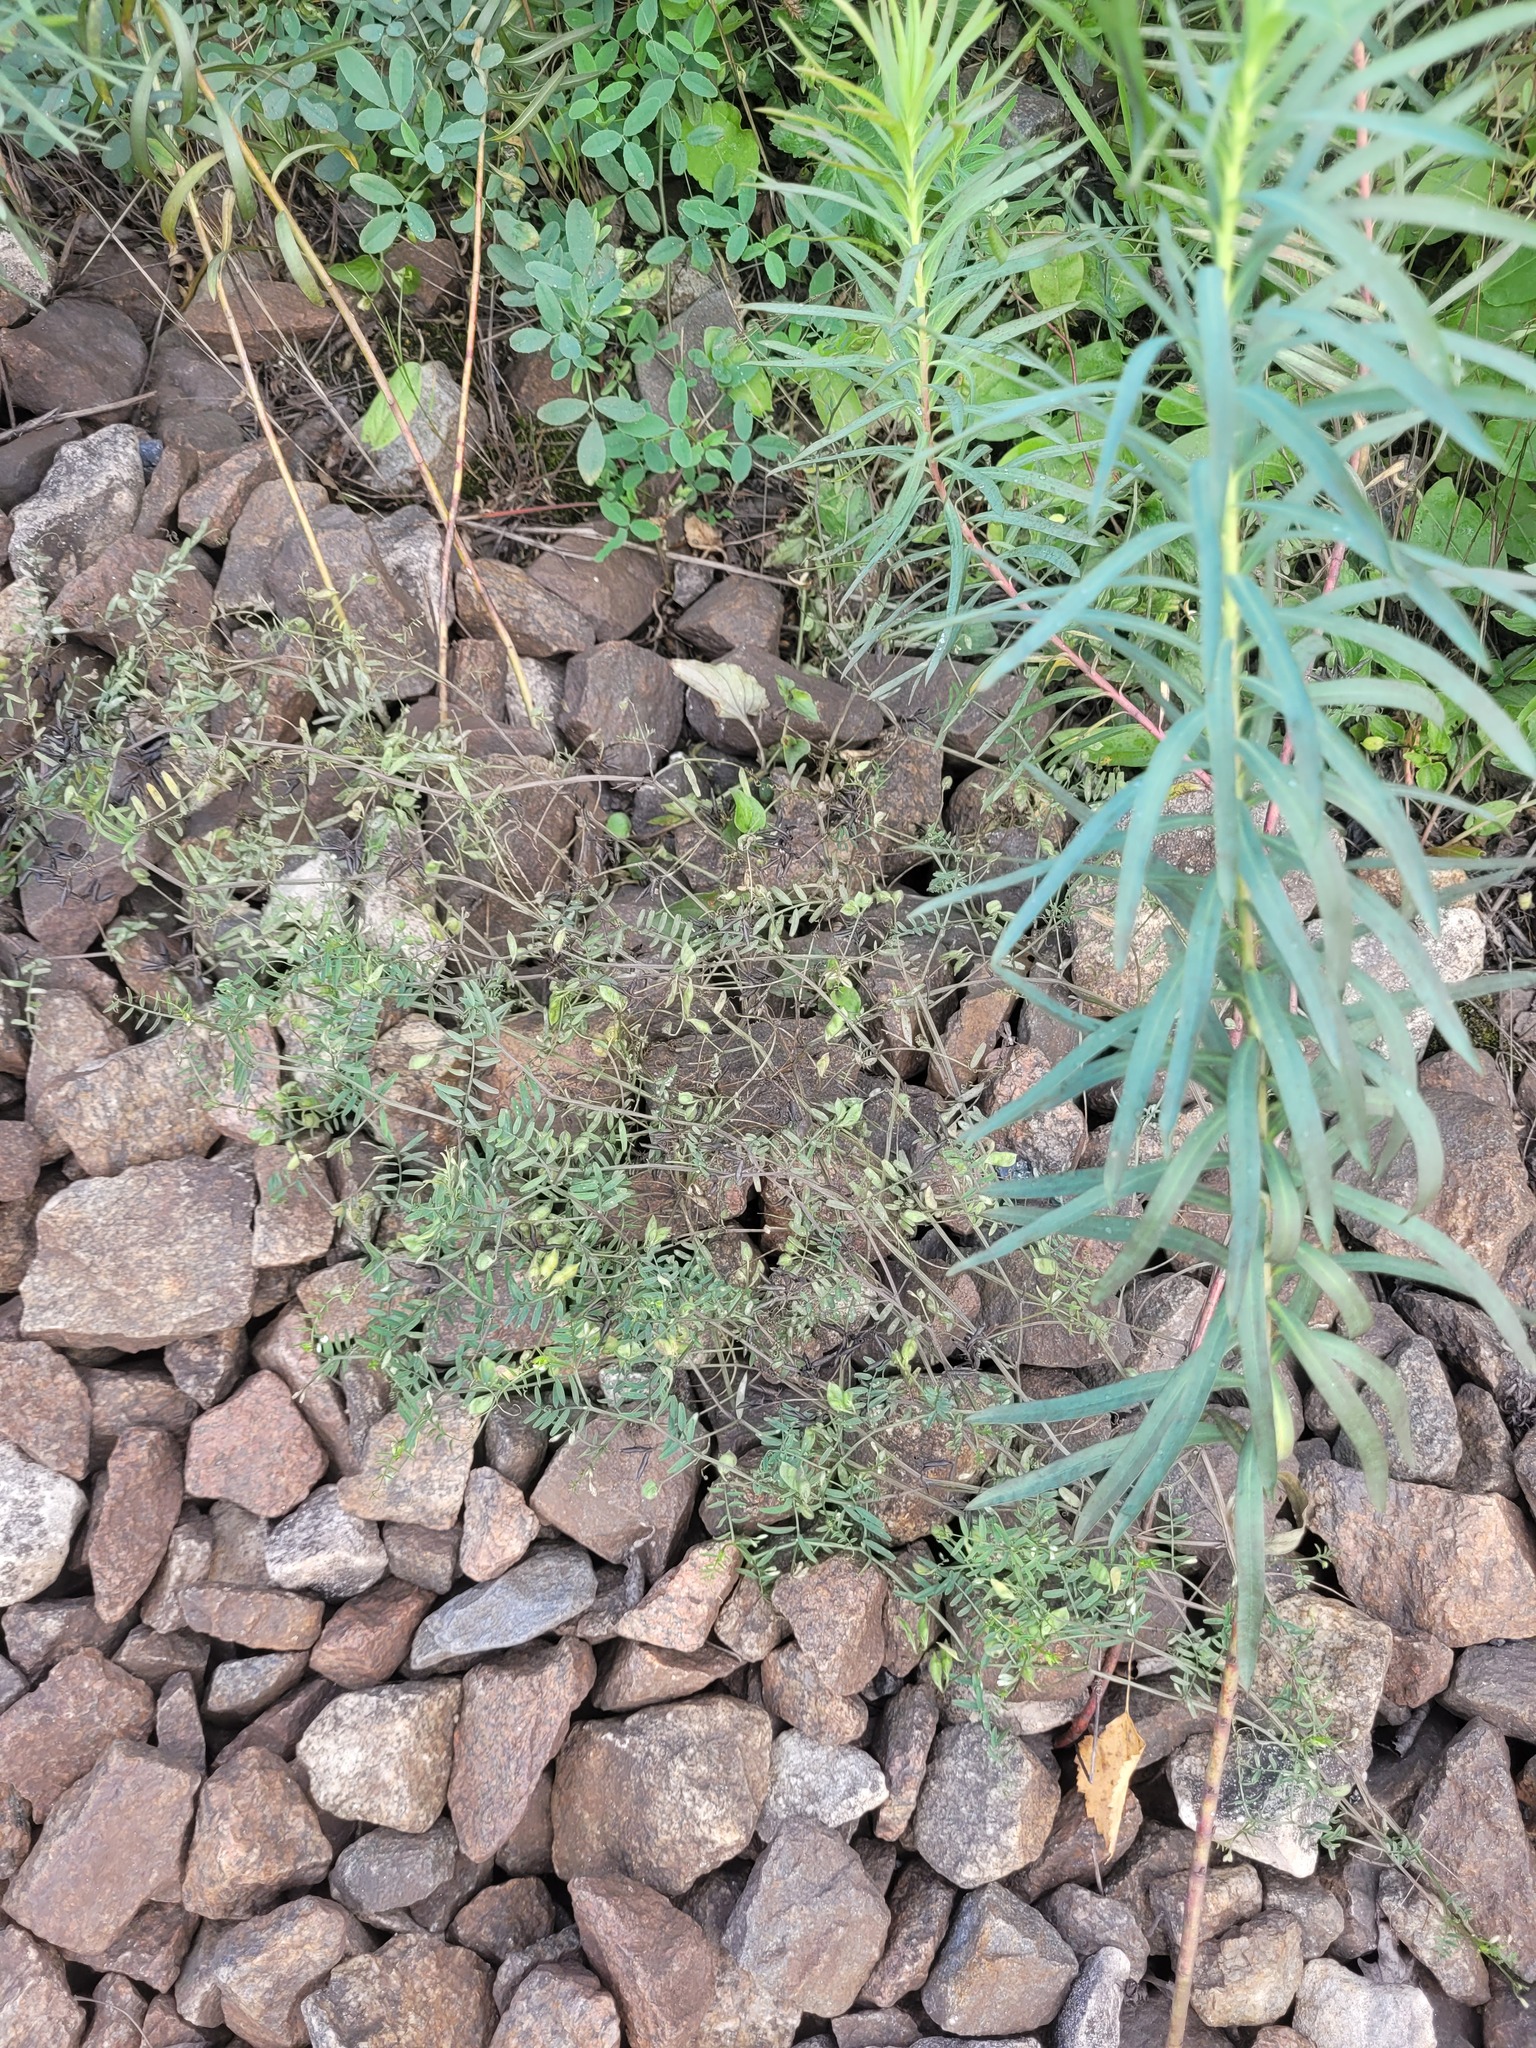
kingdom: Plantae
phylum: Tracheophyta
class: Magnoliopsida
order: Fabales
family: Fabaceae
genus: Vicia
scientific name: Vicia hirsuta
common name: Tiny vetch
